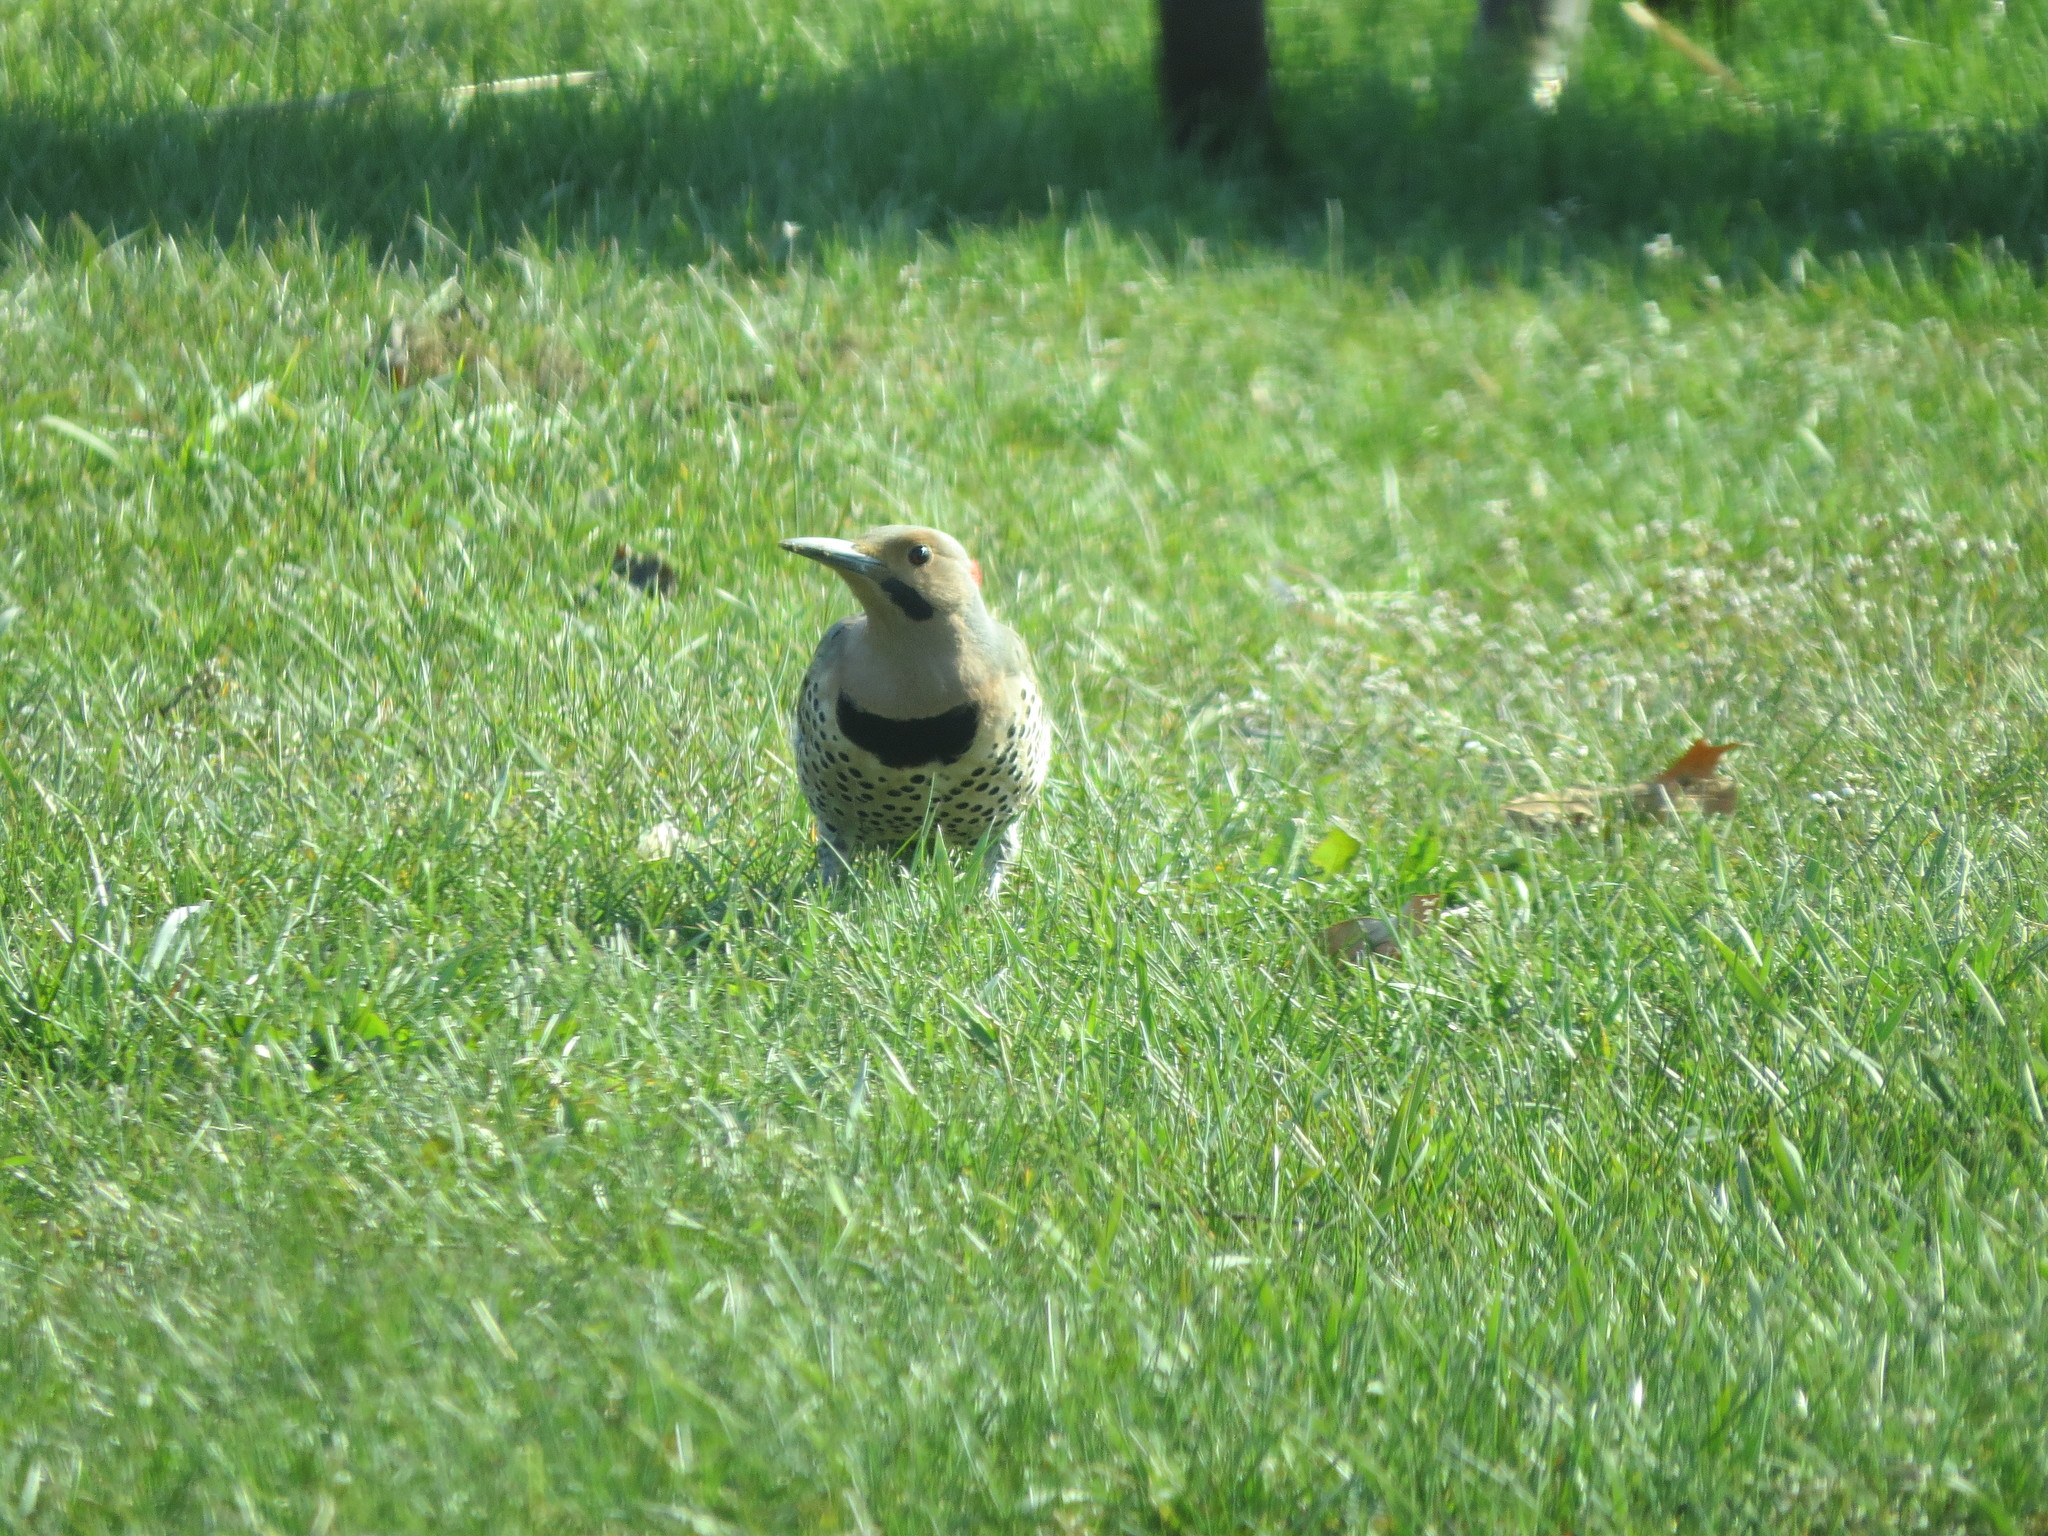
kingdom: Animalia
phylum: Chordata
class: Aves
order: Piciformes
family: Picidae
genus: Colaptes
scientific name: Colaptes auratus
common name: Northern flicker
